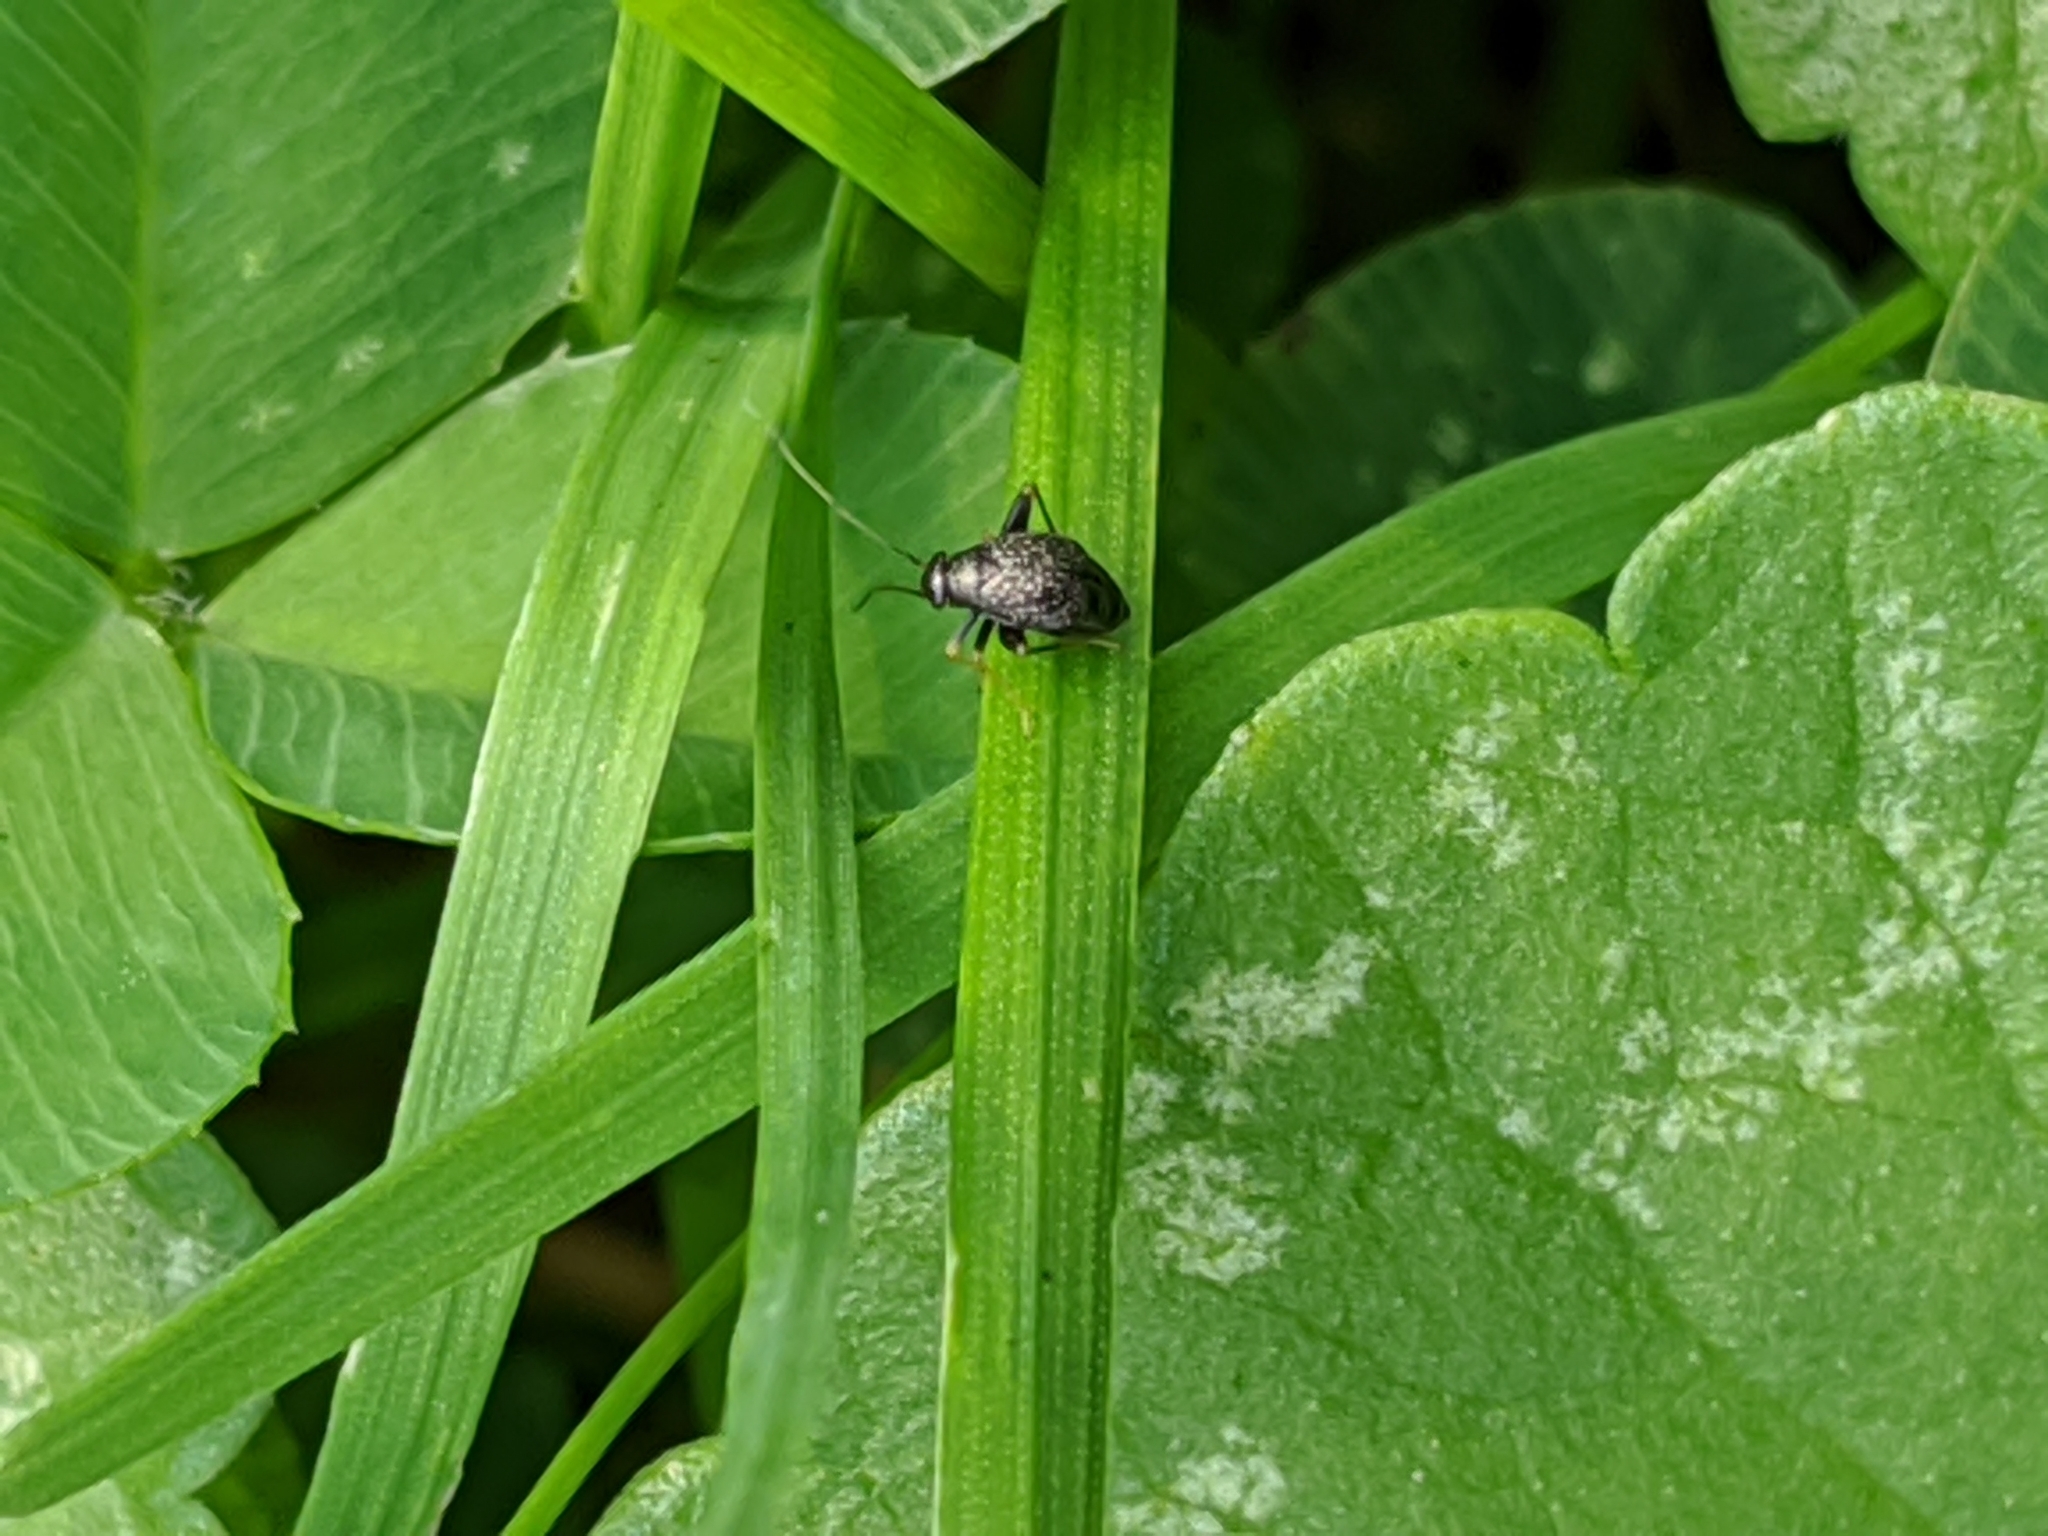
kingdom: Animalia
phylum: Arthropoda
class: Insecta
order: Hemiptera
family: Miridae
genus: Microtechnites
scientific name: Microtechnites bractatus
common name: Garden fleahopper
